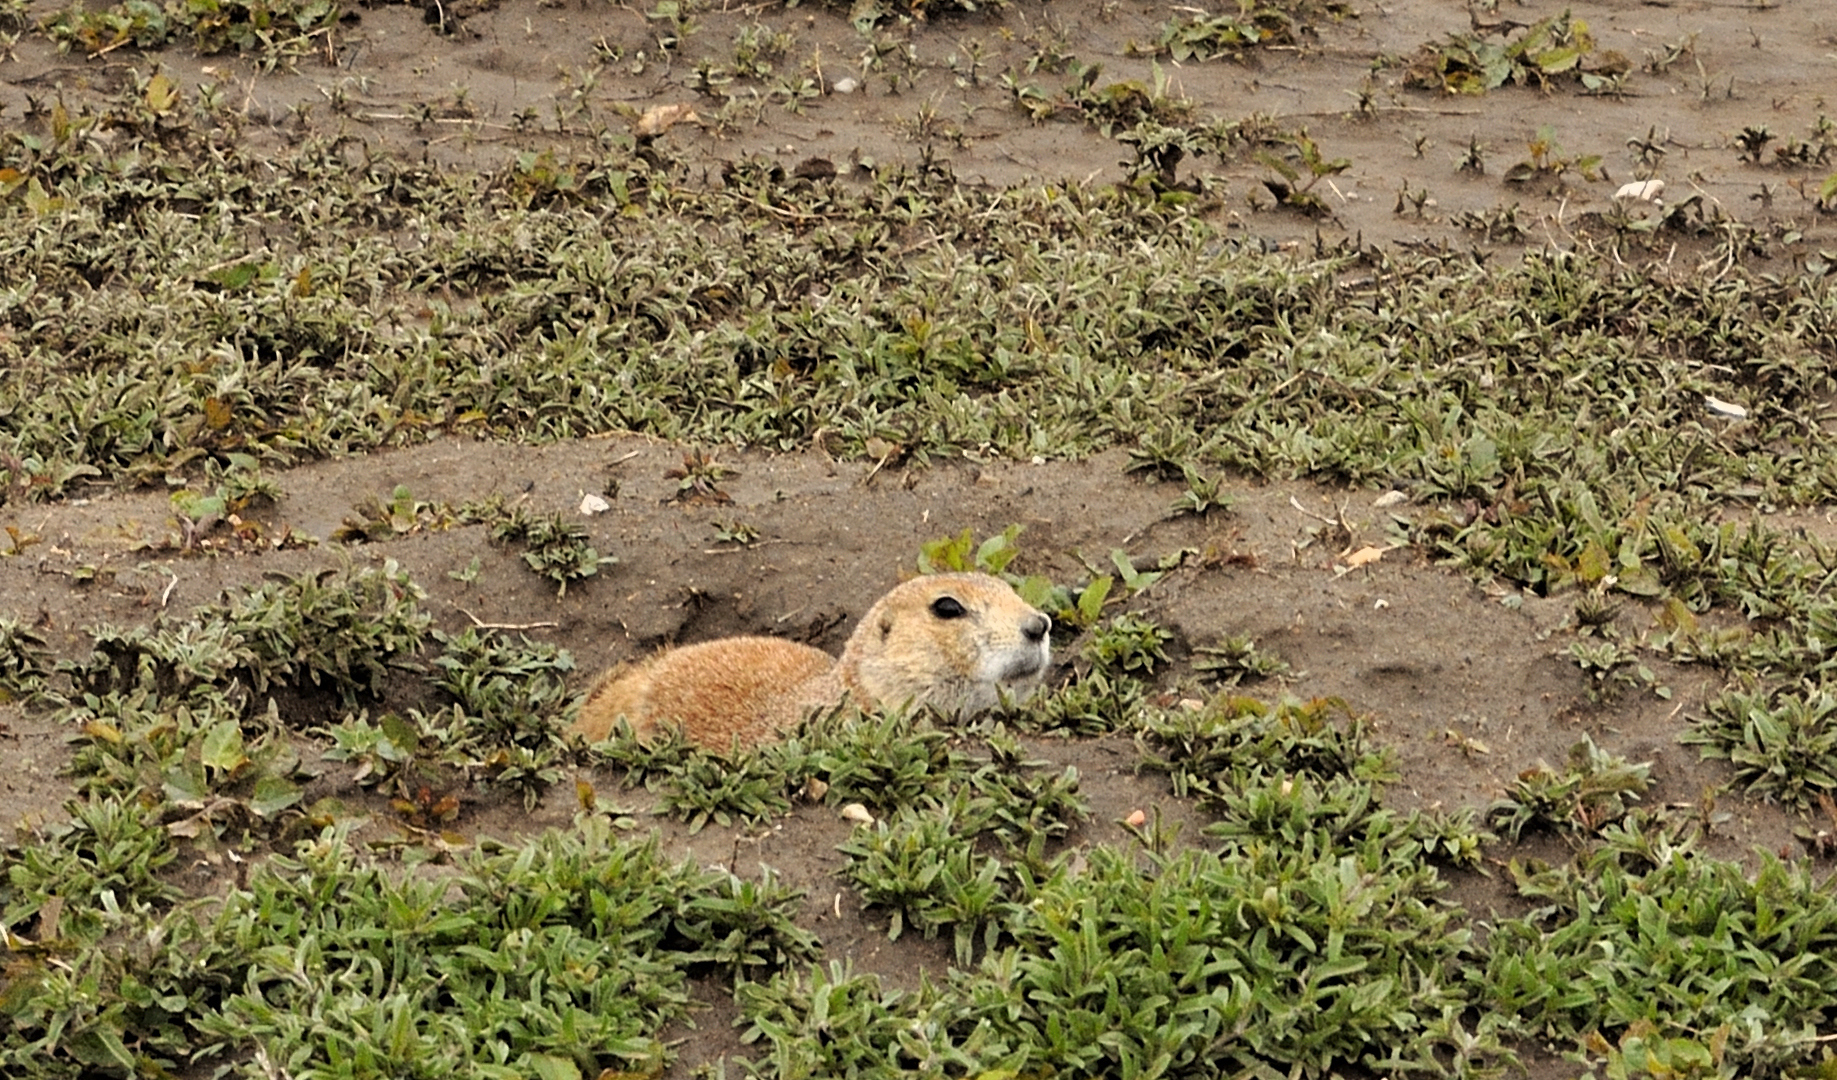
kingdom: Animalia
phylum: Chordata
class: Mammalia
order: Rodentia
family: Sciuridae
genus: Cynomys
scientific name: Cynomys ludovicianus
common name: Black-tailed prairie dog
